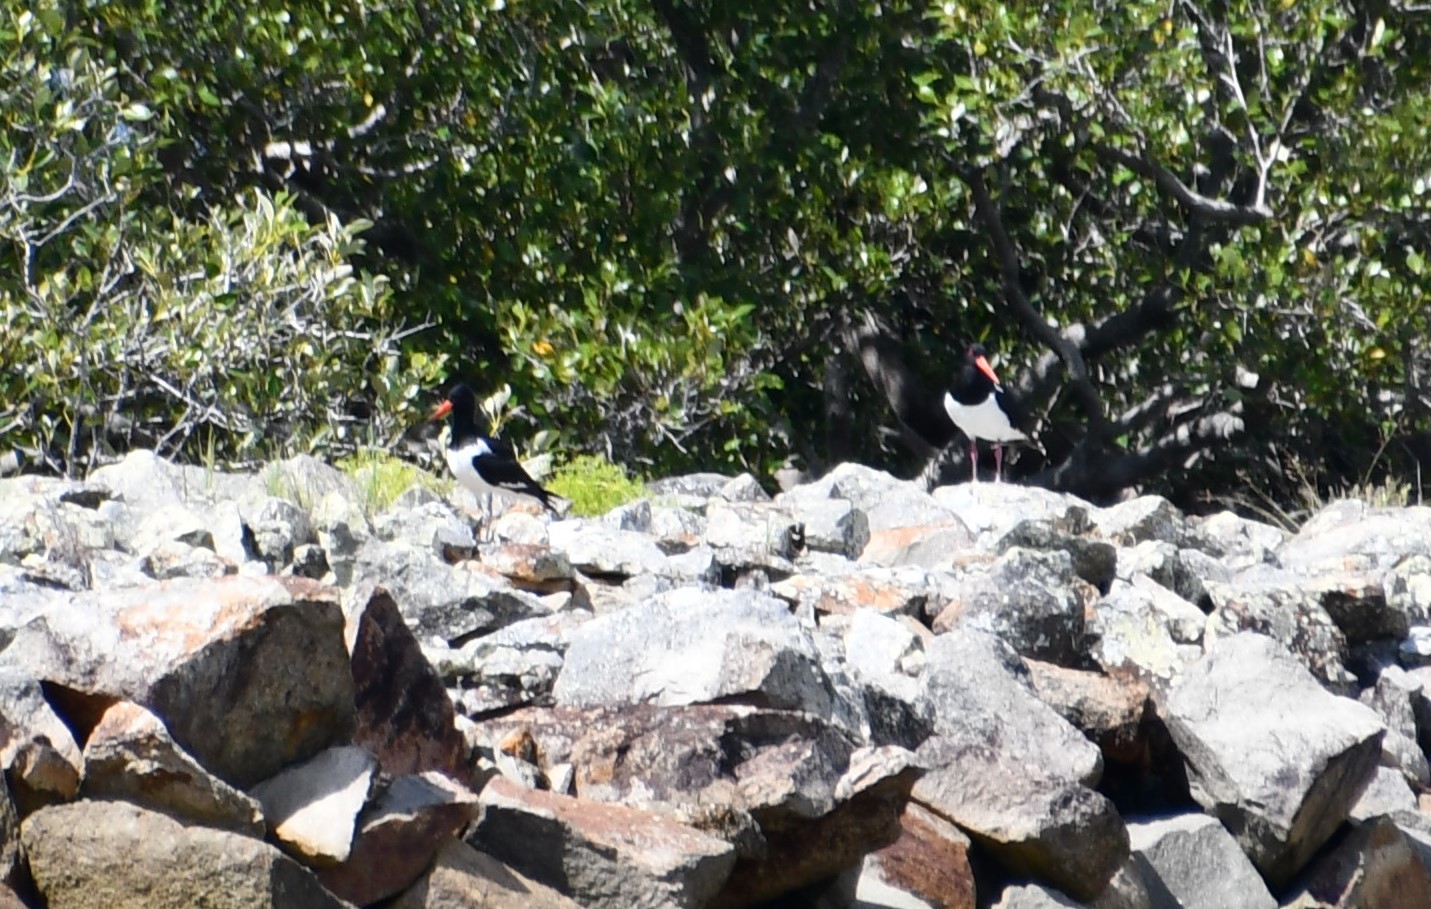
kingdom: Animalia
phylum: Chordata
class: Aves
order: Charadriiformes
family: Haematopodidae
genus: Haematopus
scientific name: Haematopus longirostris
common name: Pied oystercatcher
